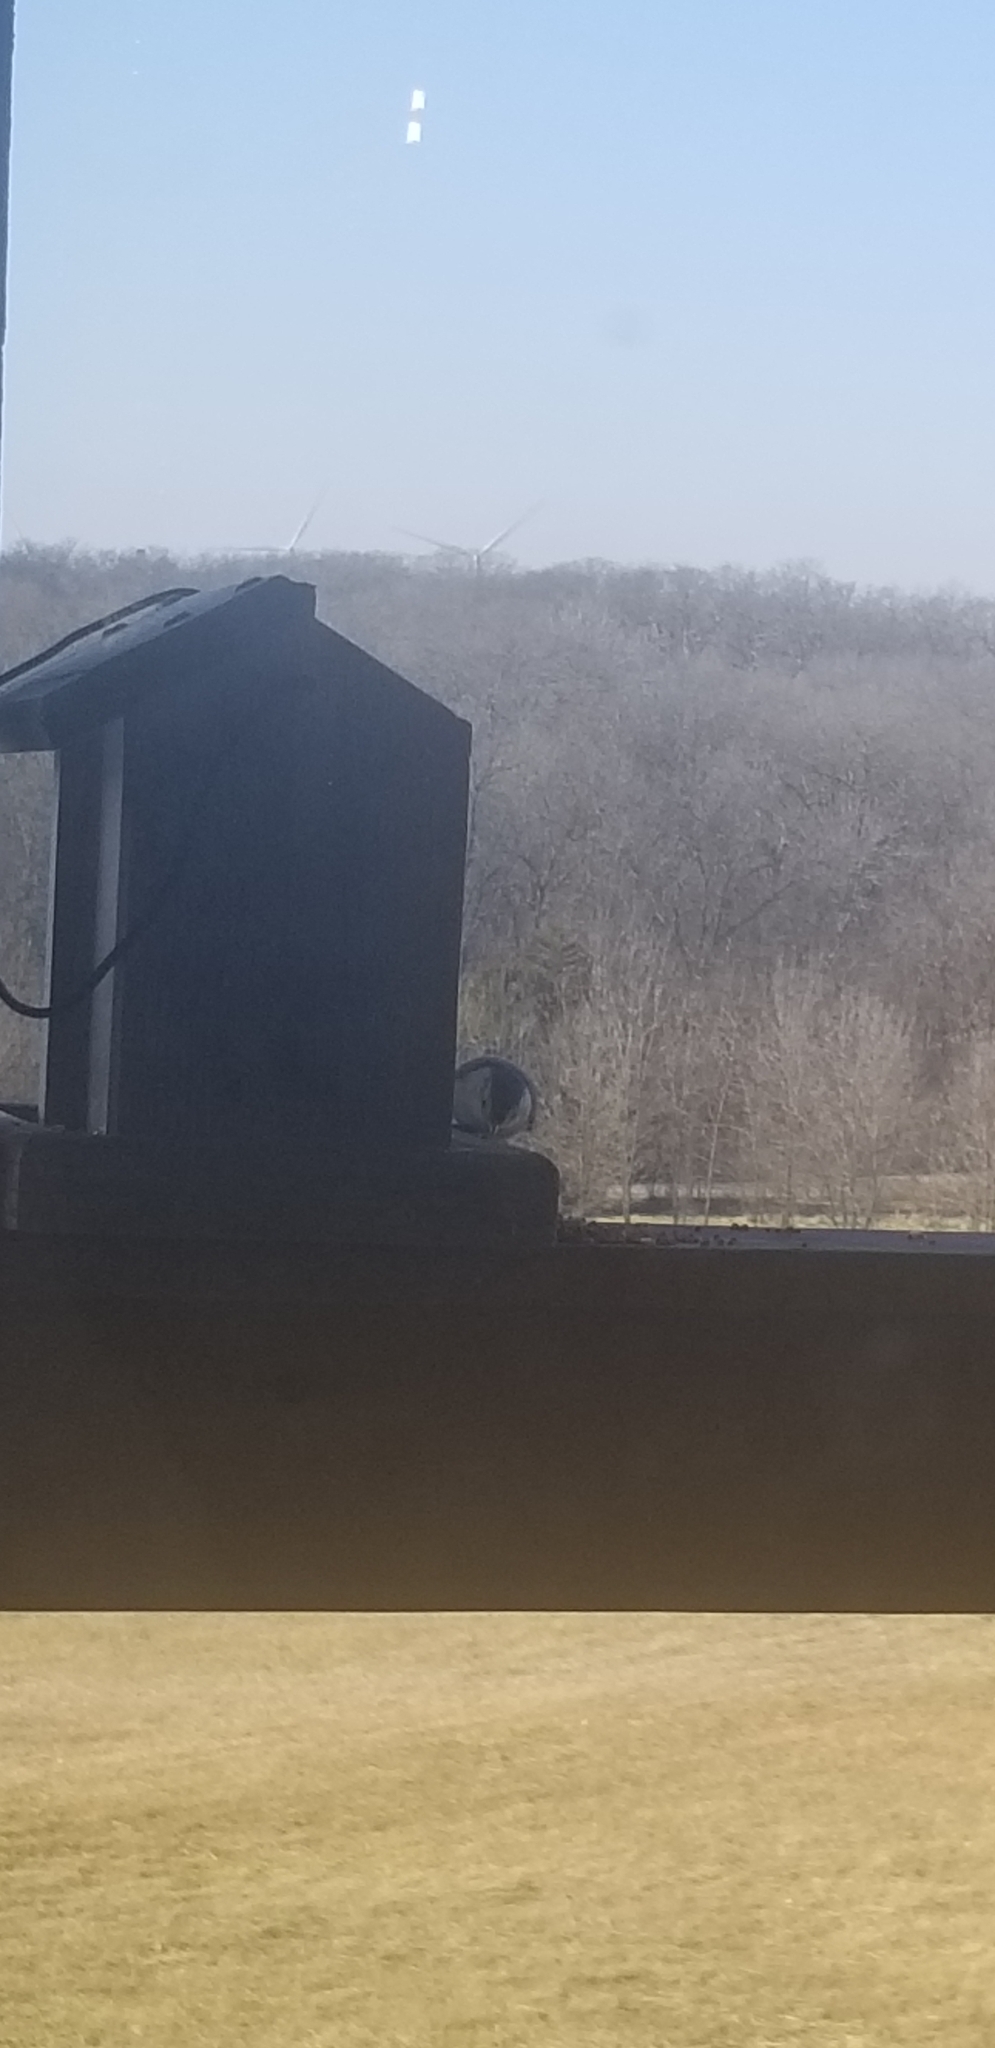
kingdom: Animalia
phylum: Chordata
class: Aves
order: Passeriformes
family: Sittidae
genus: Sitta
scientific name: Sitta carolinensis
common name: White-breasted nuthatch
